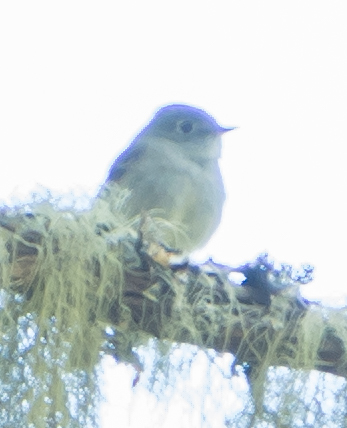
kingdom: Animalia
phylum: Chordata
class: Aves
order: Passeriformes
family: Tyrannidae
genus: Empidonax
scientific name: Empidonax traillii
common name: Willow flycatcher
